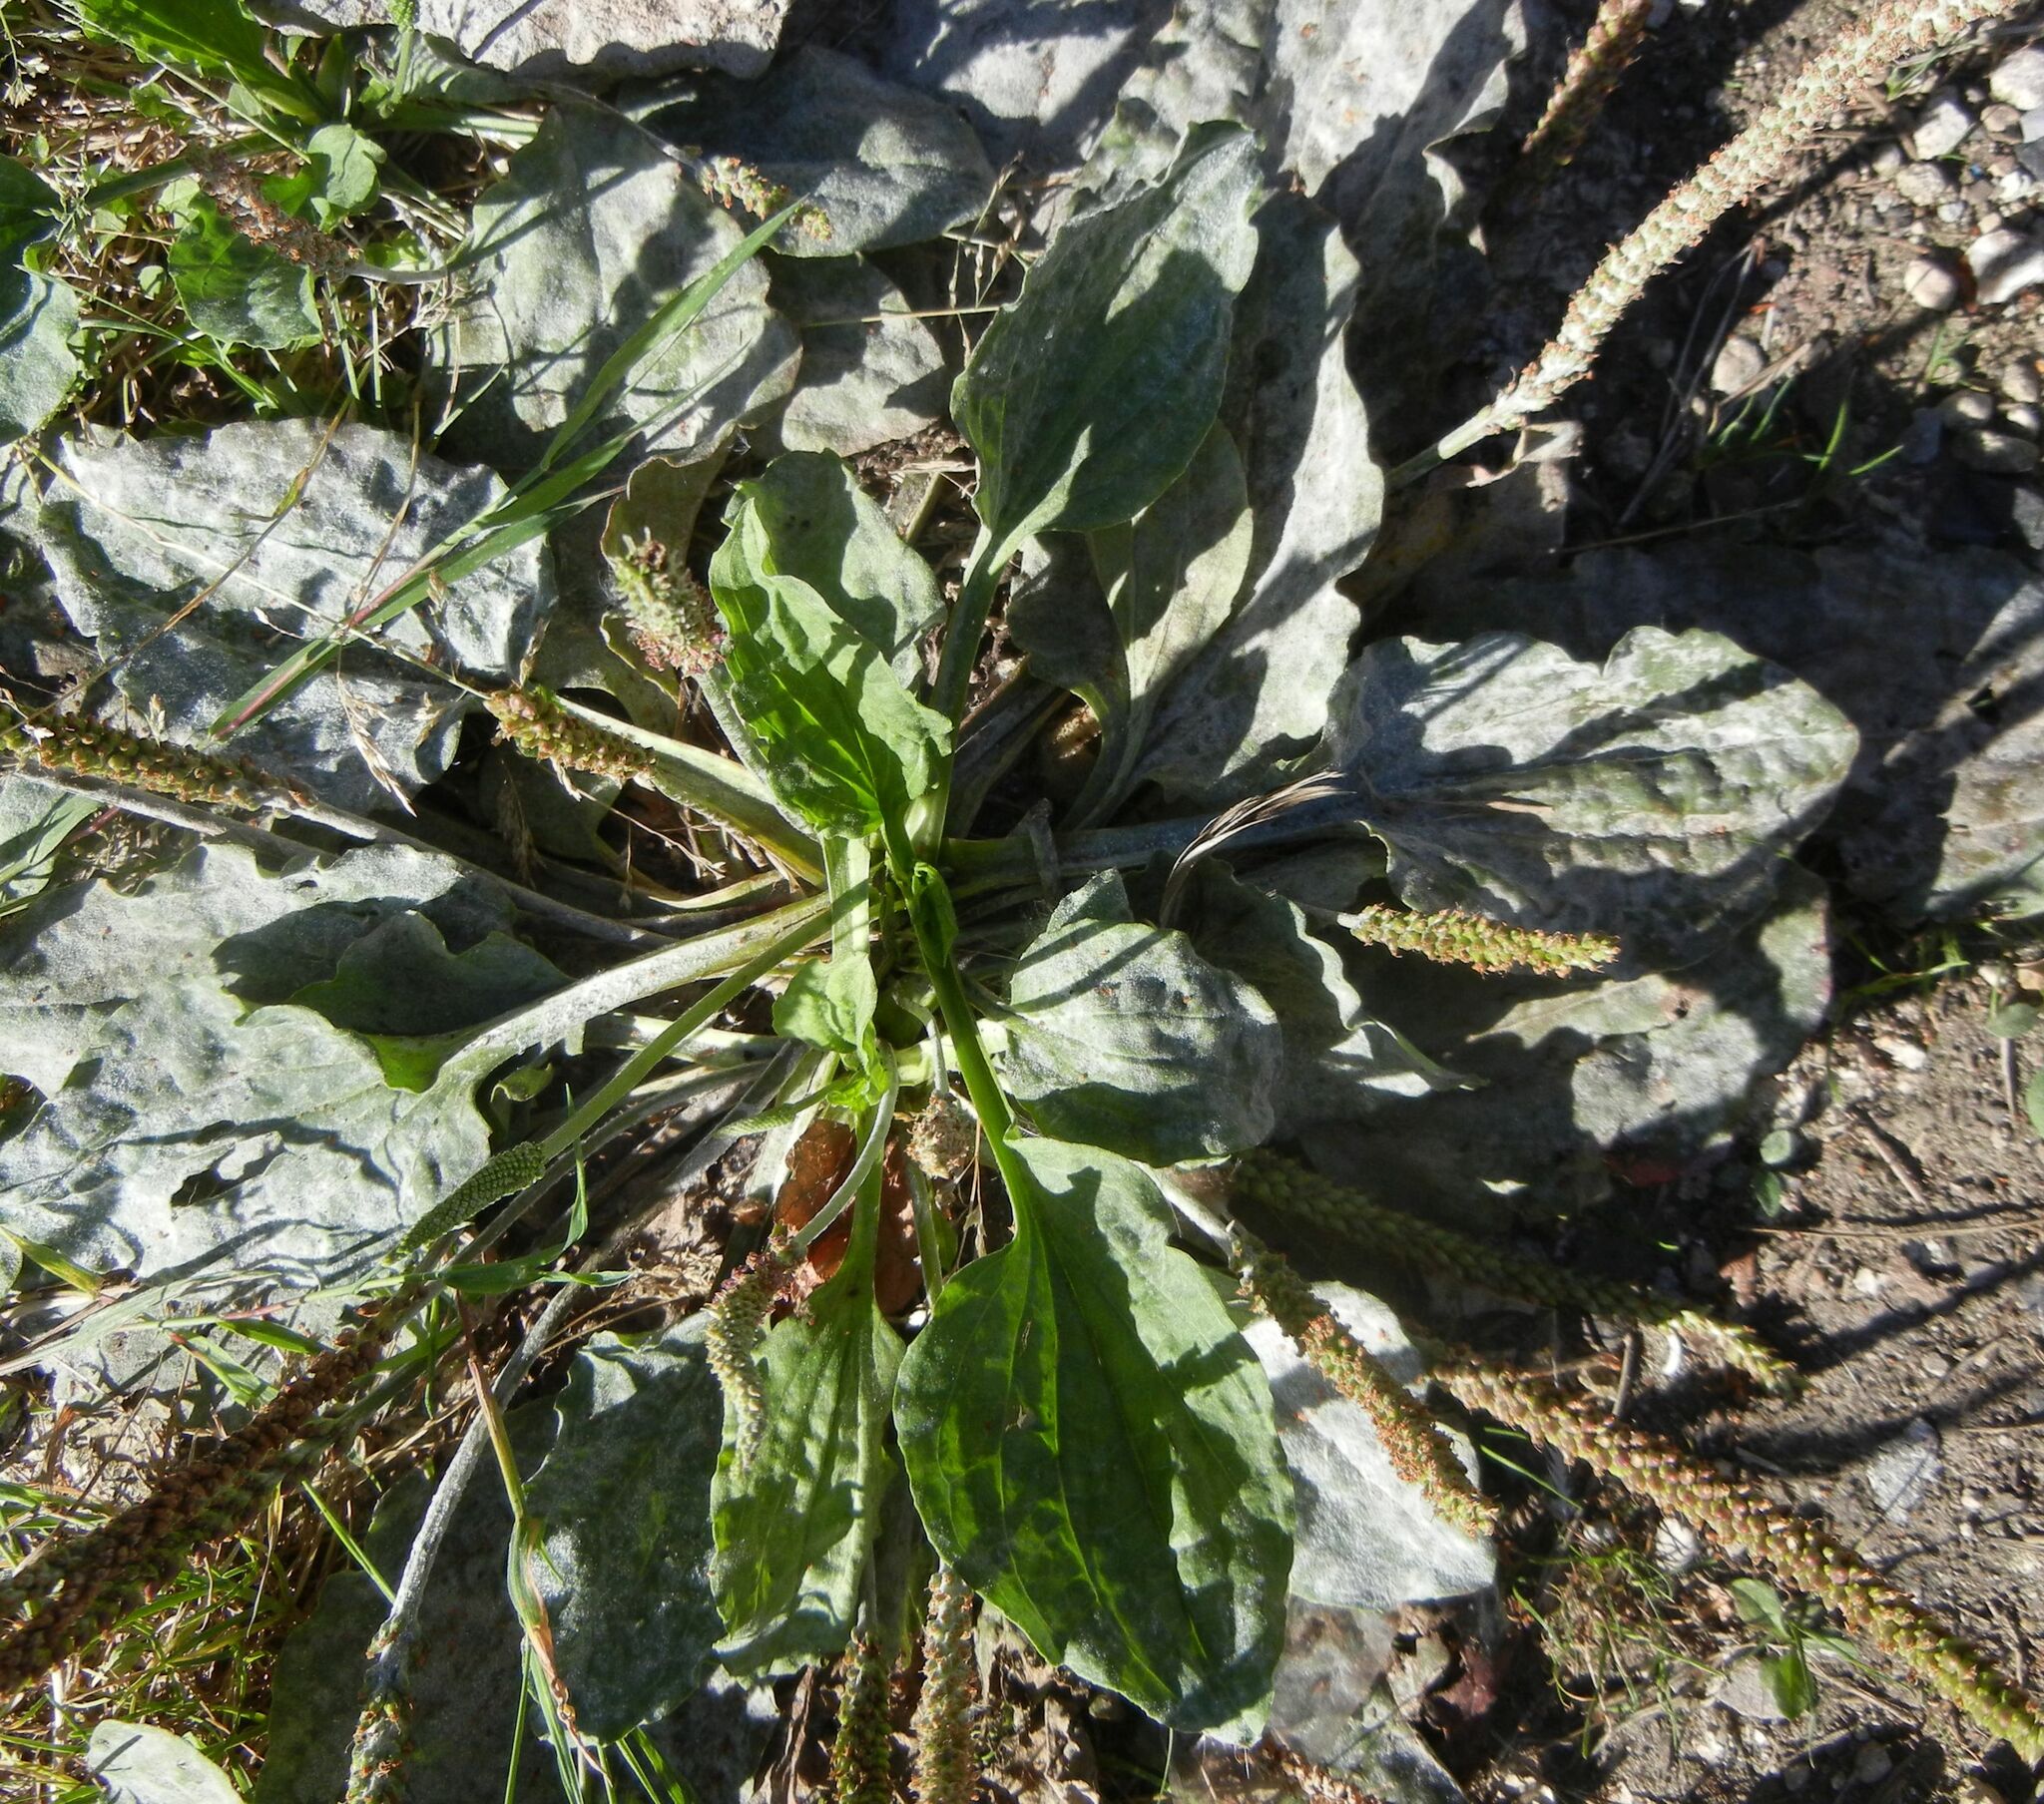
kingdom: Plantae
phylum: Tracheophyta
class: Magnoliopsida
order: Lamiales
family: Plantaginaceae
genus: Plantago
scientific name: Plantago major
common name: Common plantain
